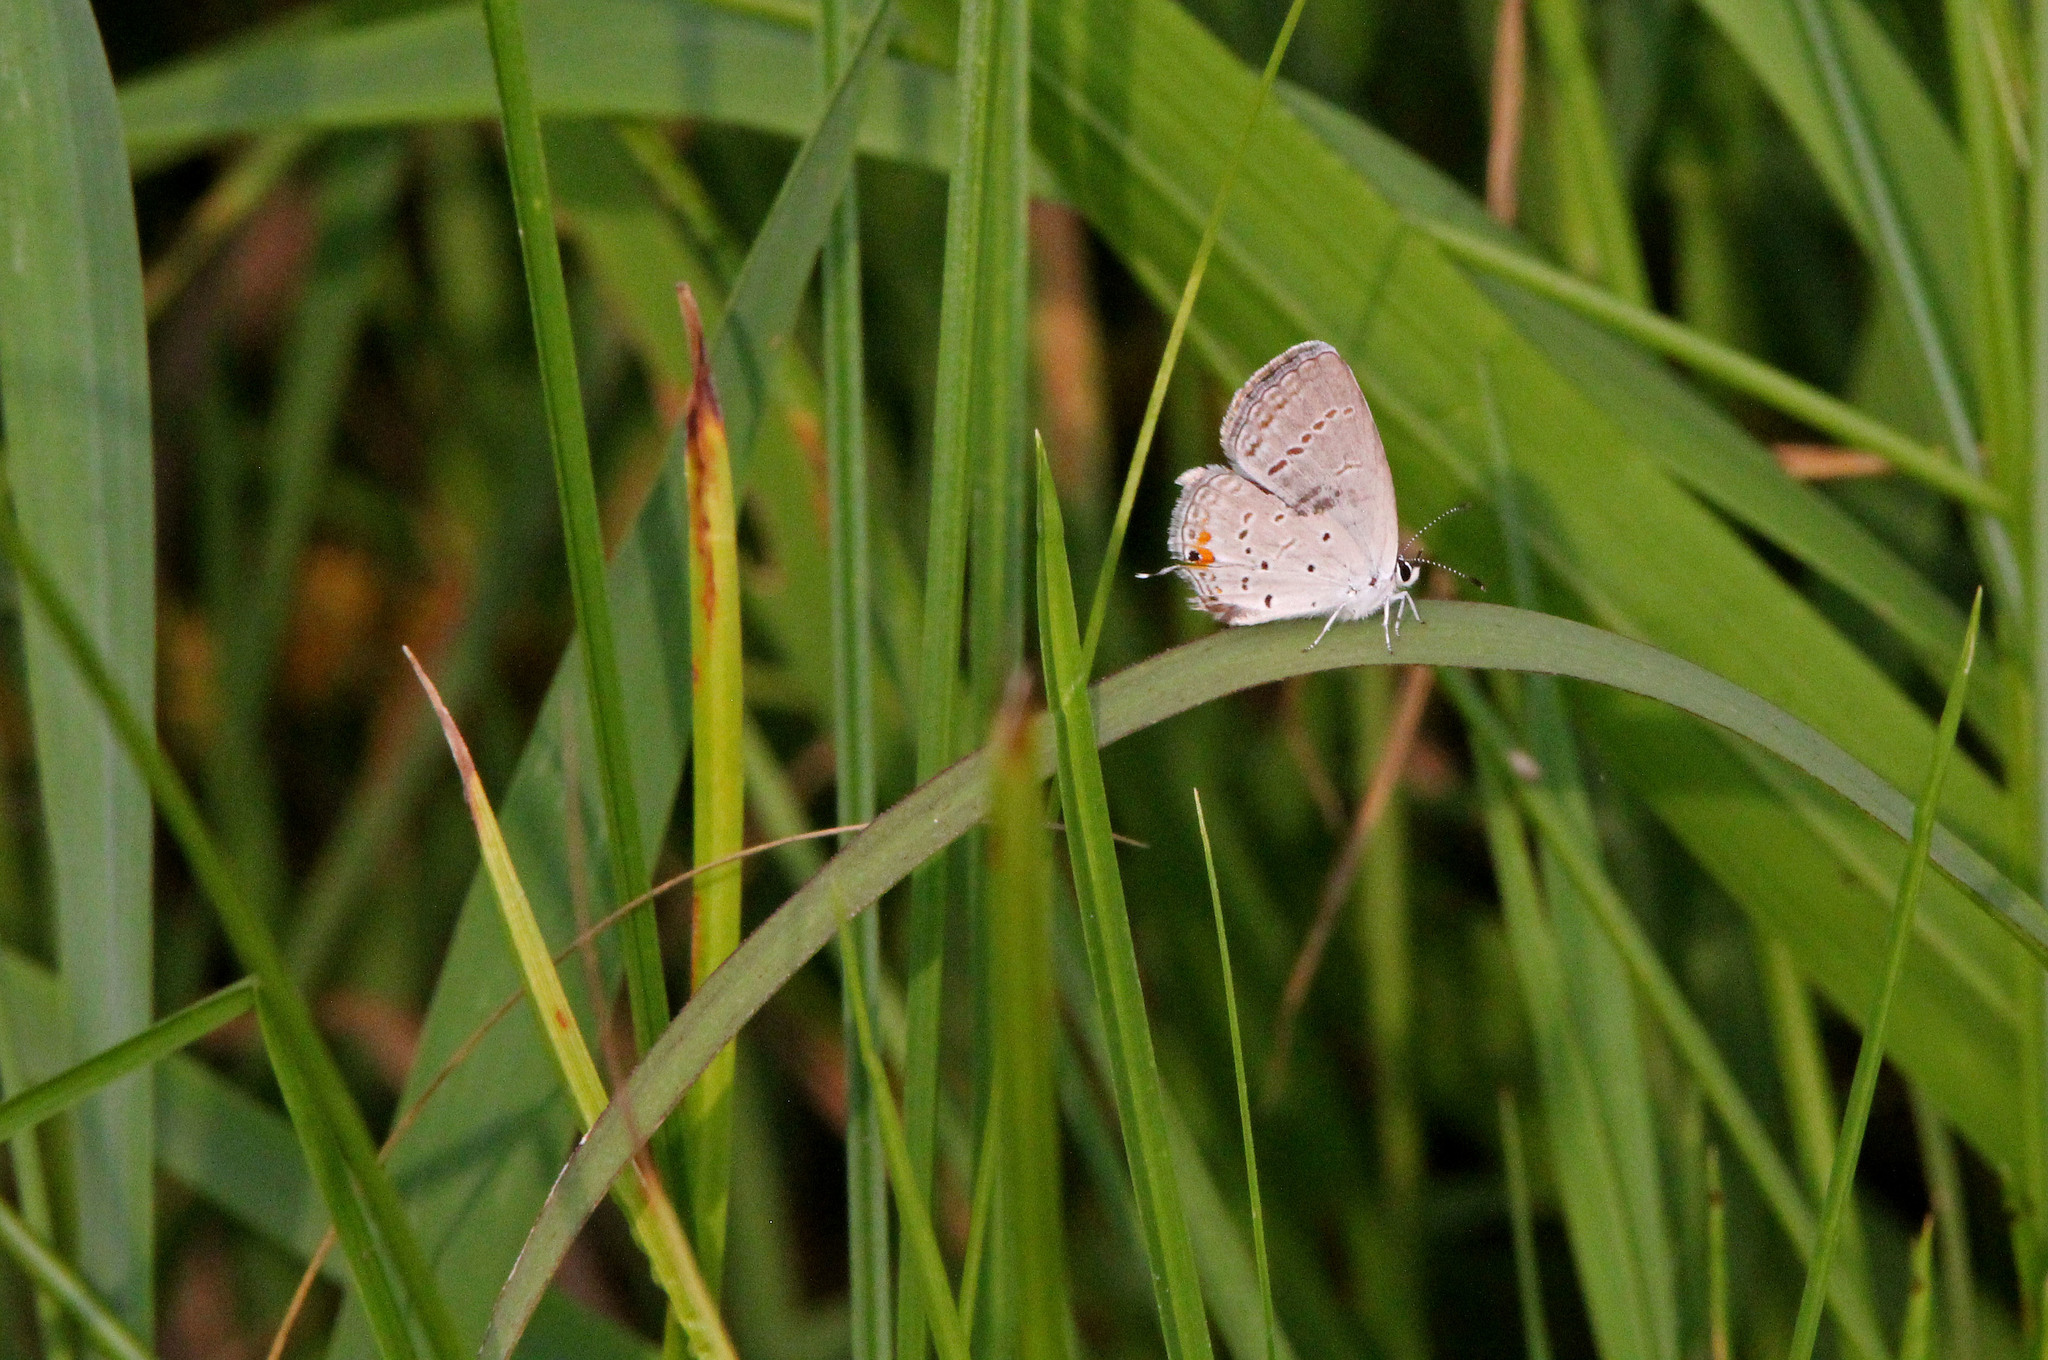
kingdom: Animalia
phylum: Arthropoda
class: Insecta
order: Lepidoptera
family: Lycaenidae
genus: Elkalyce
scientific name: Elkalyce comyntas
